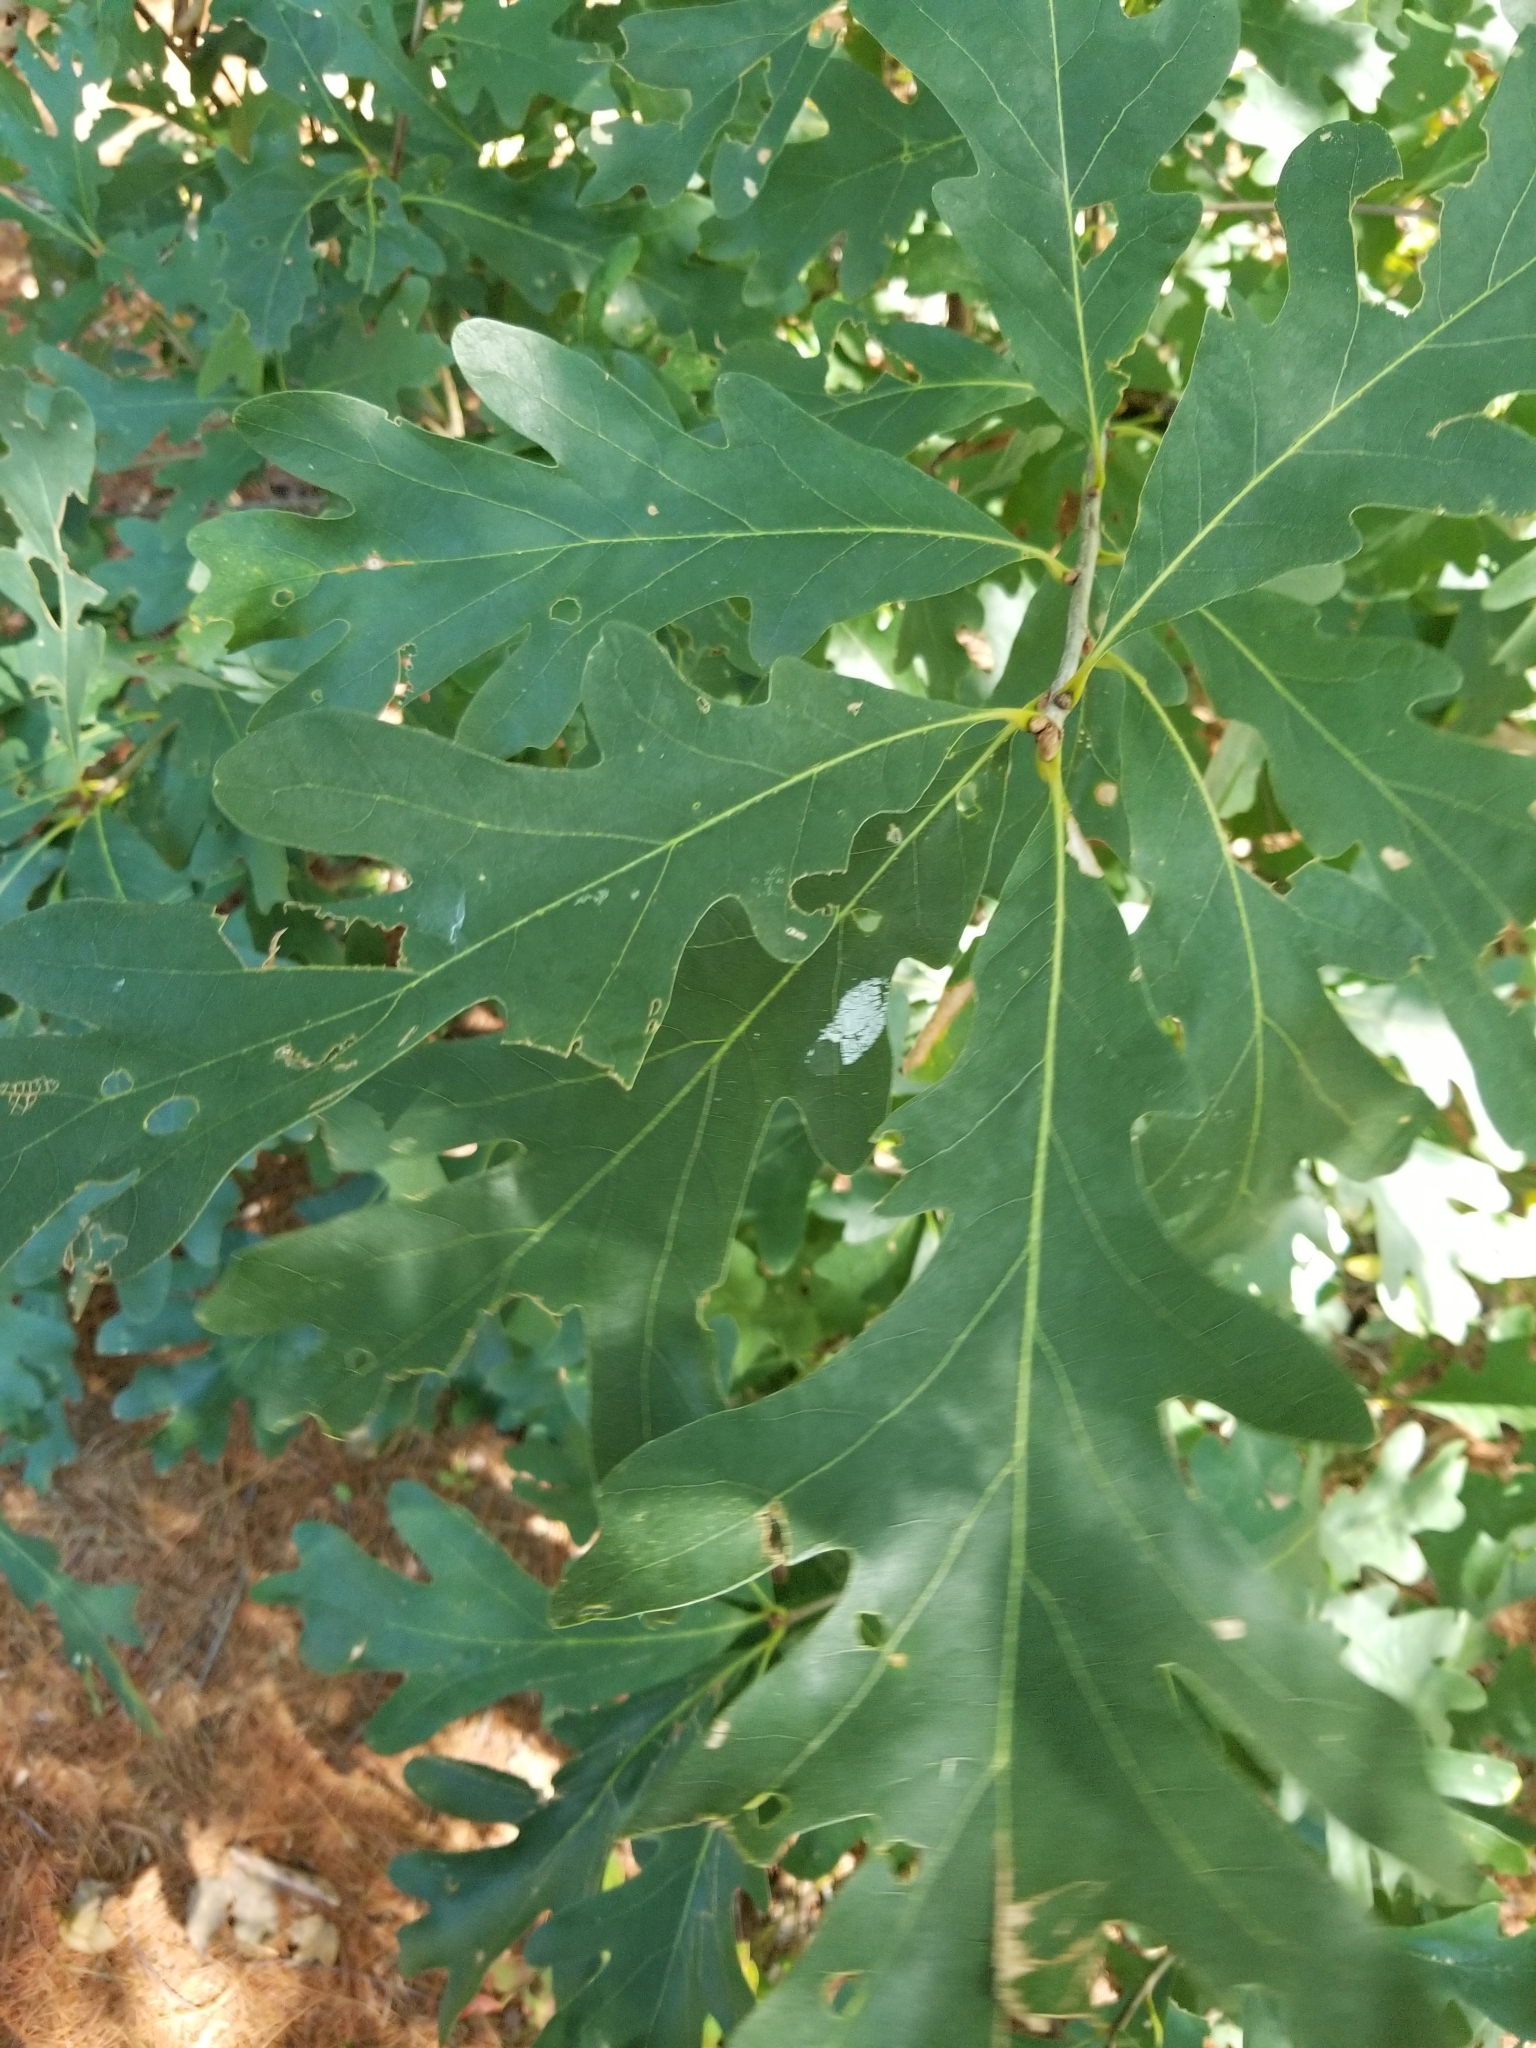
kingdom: Plantae
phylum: Tracheophyta
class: Magnoliopsida
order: Fagales
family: Fagaceae
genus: Quercus
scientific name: Quercus alba
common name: White oak
